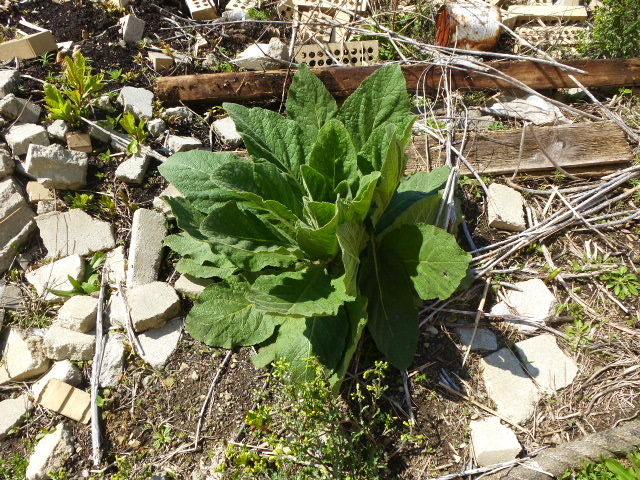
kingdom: Plantae
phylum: Tracheophyta
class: Magnoliopsida
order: Lamiales
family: Scrophulariaceae
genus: Verbascum
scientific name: Verbascum thapsus
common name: Common mullein
